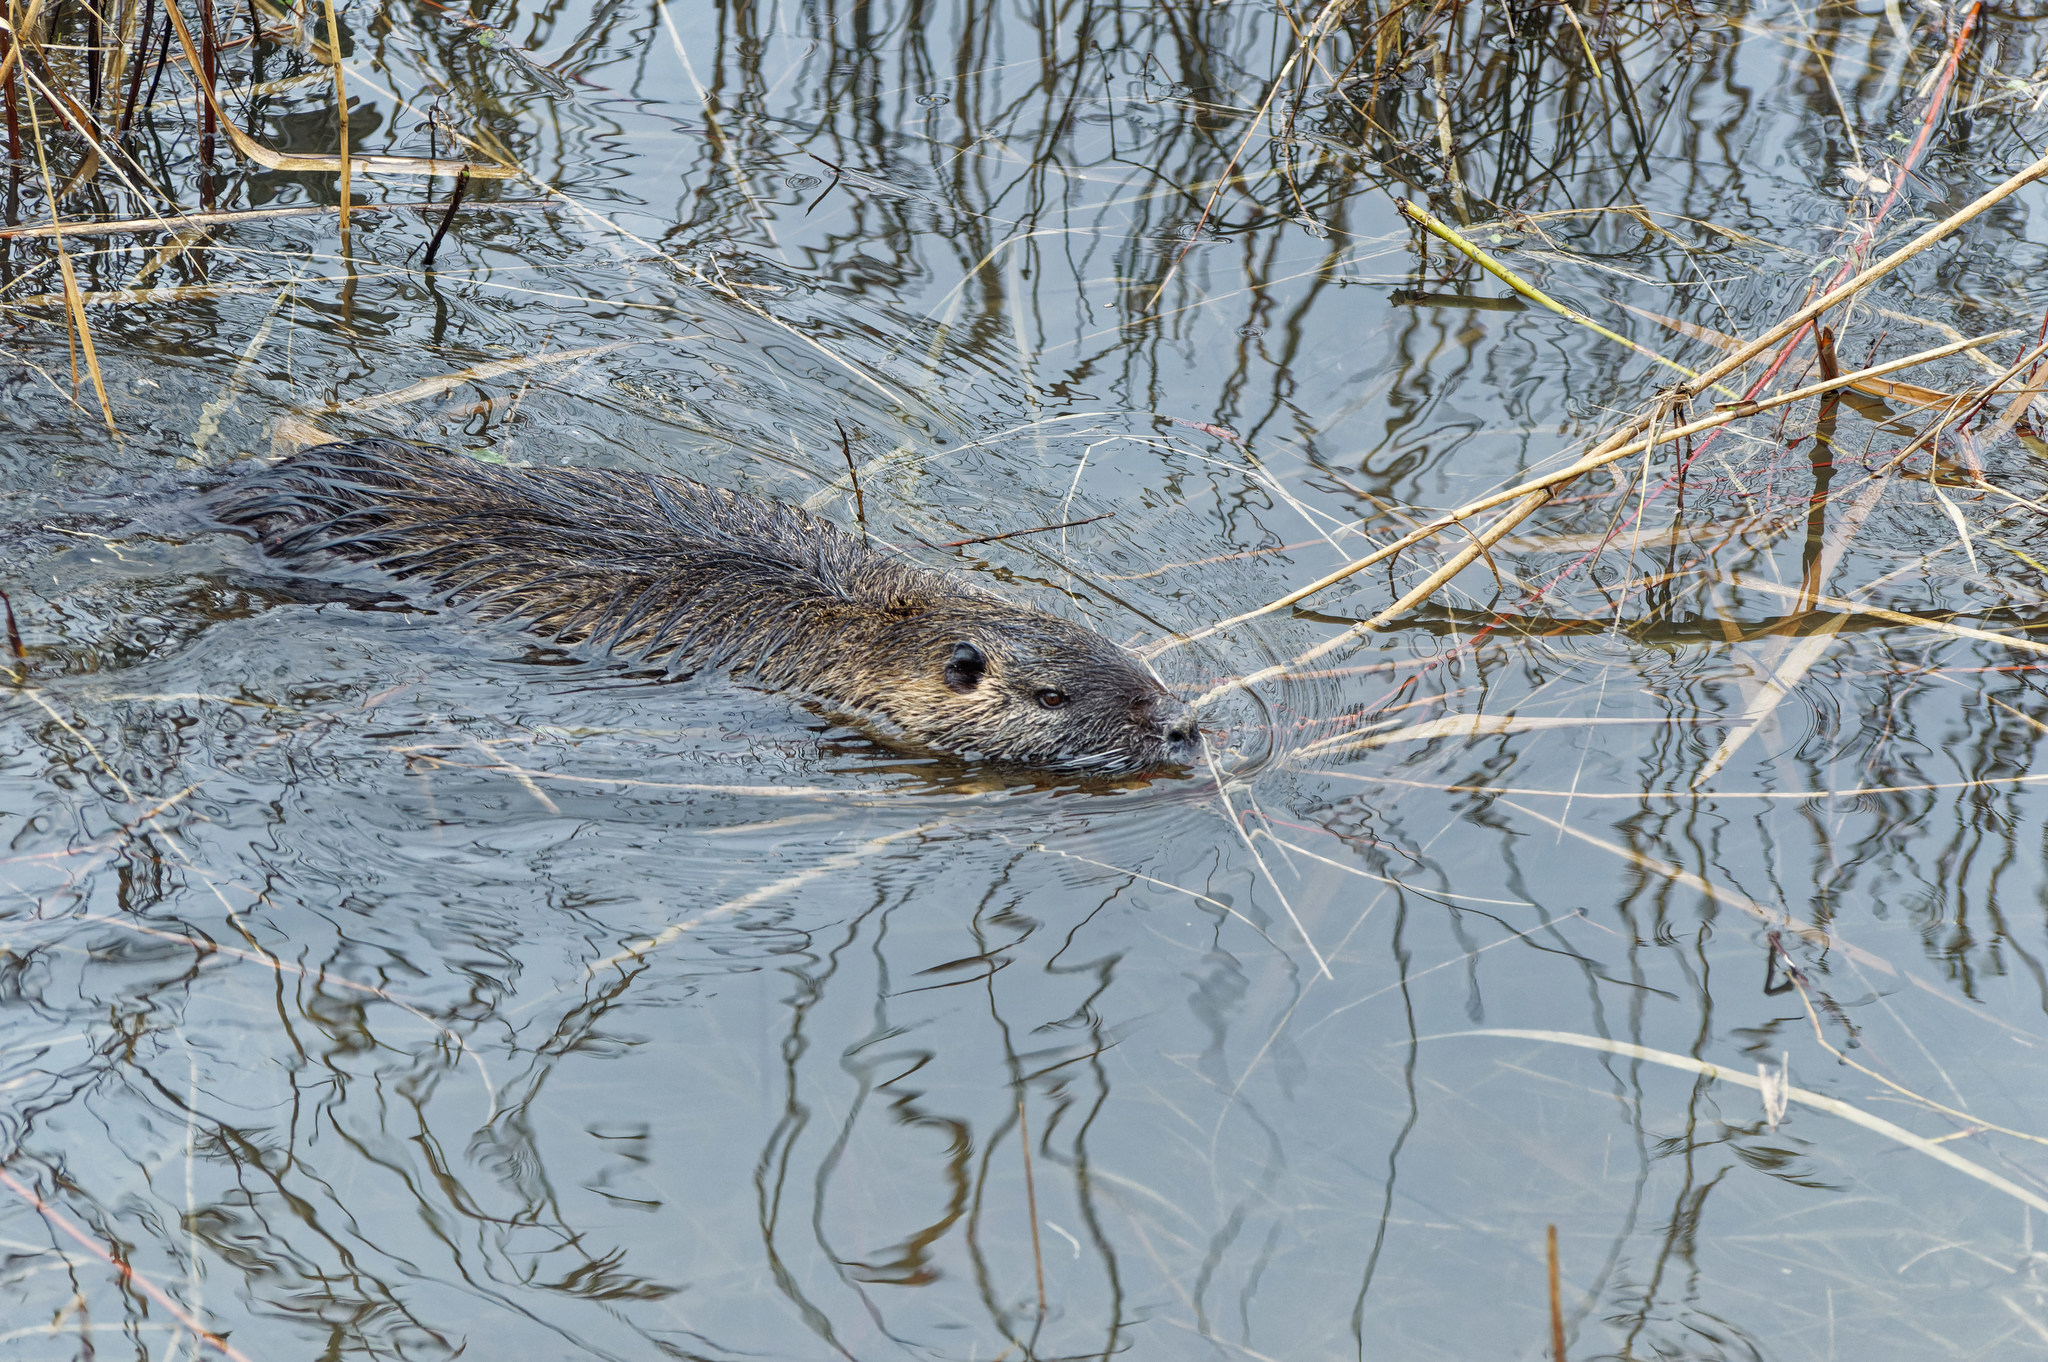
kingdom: Animalia
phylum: Chordata
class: Mammalia
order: Rodentia
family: Myocastoridae
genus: Myocastor
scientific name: Myocastor coypus
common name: Coypu
